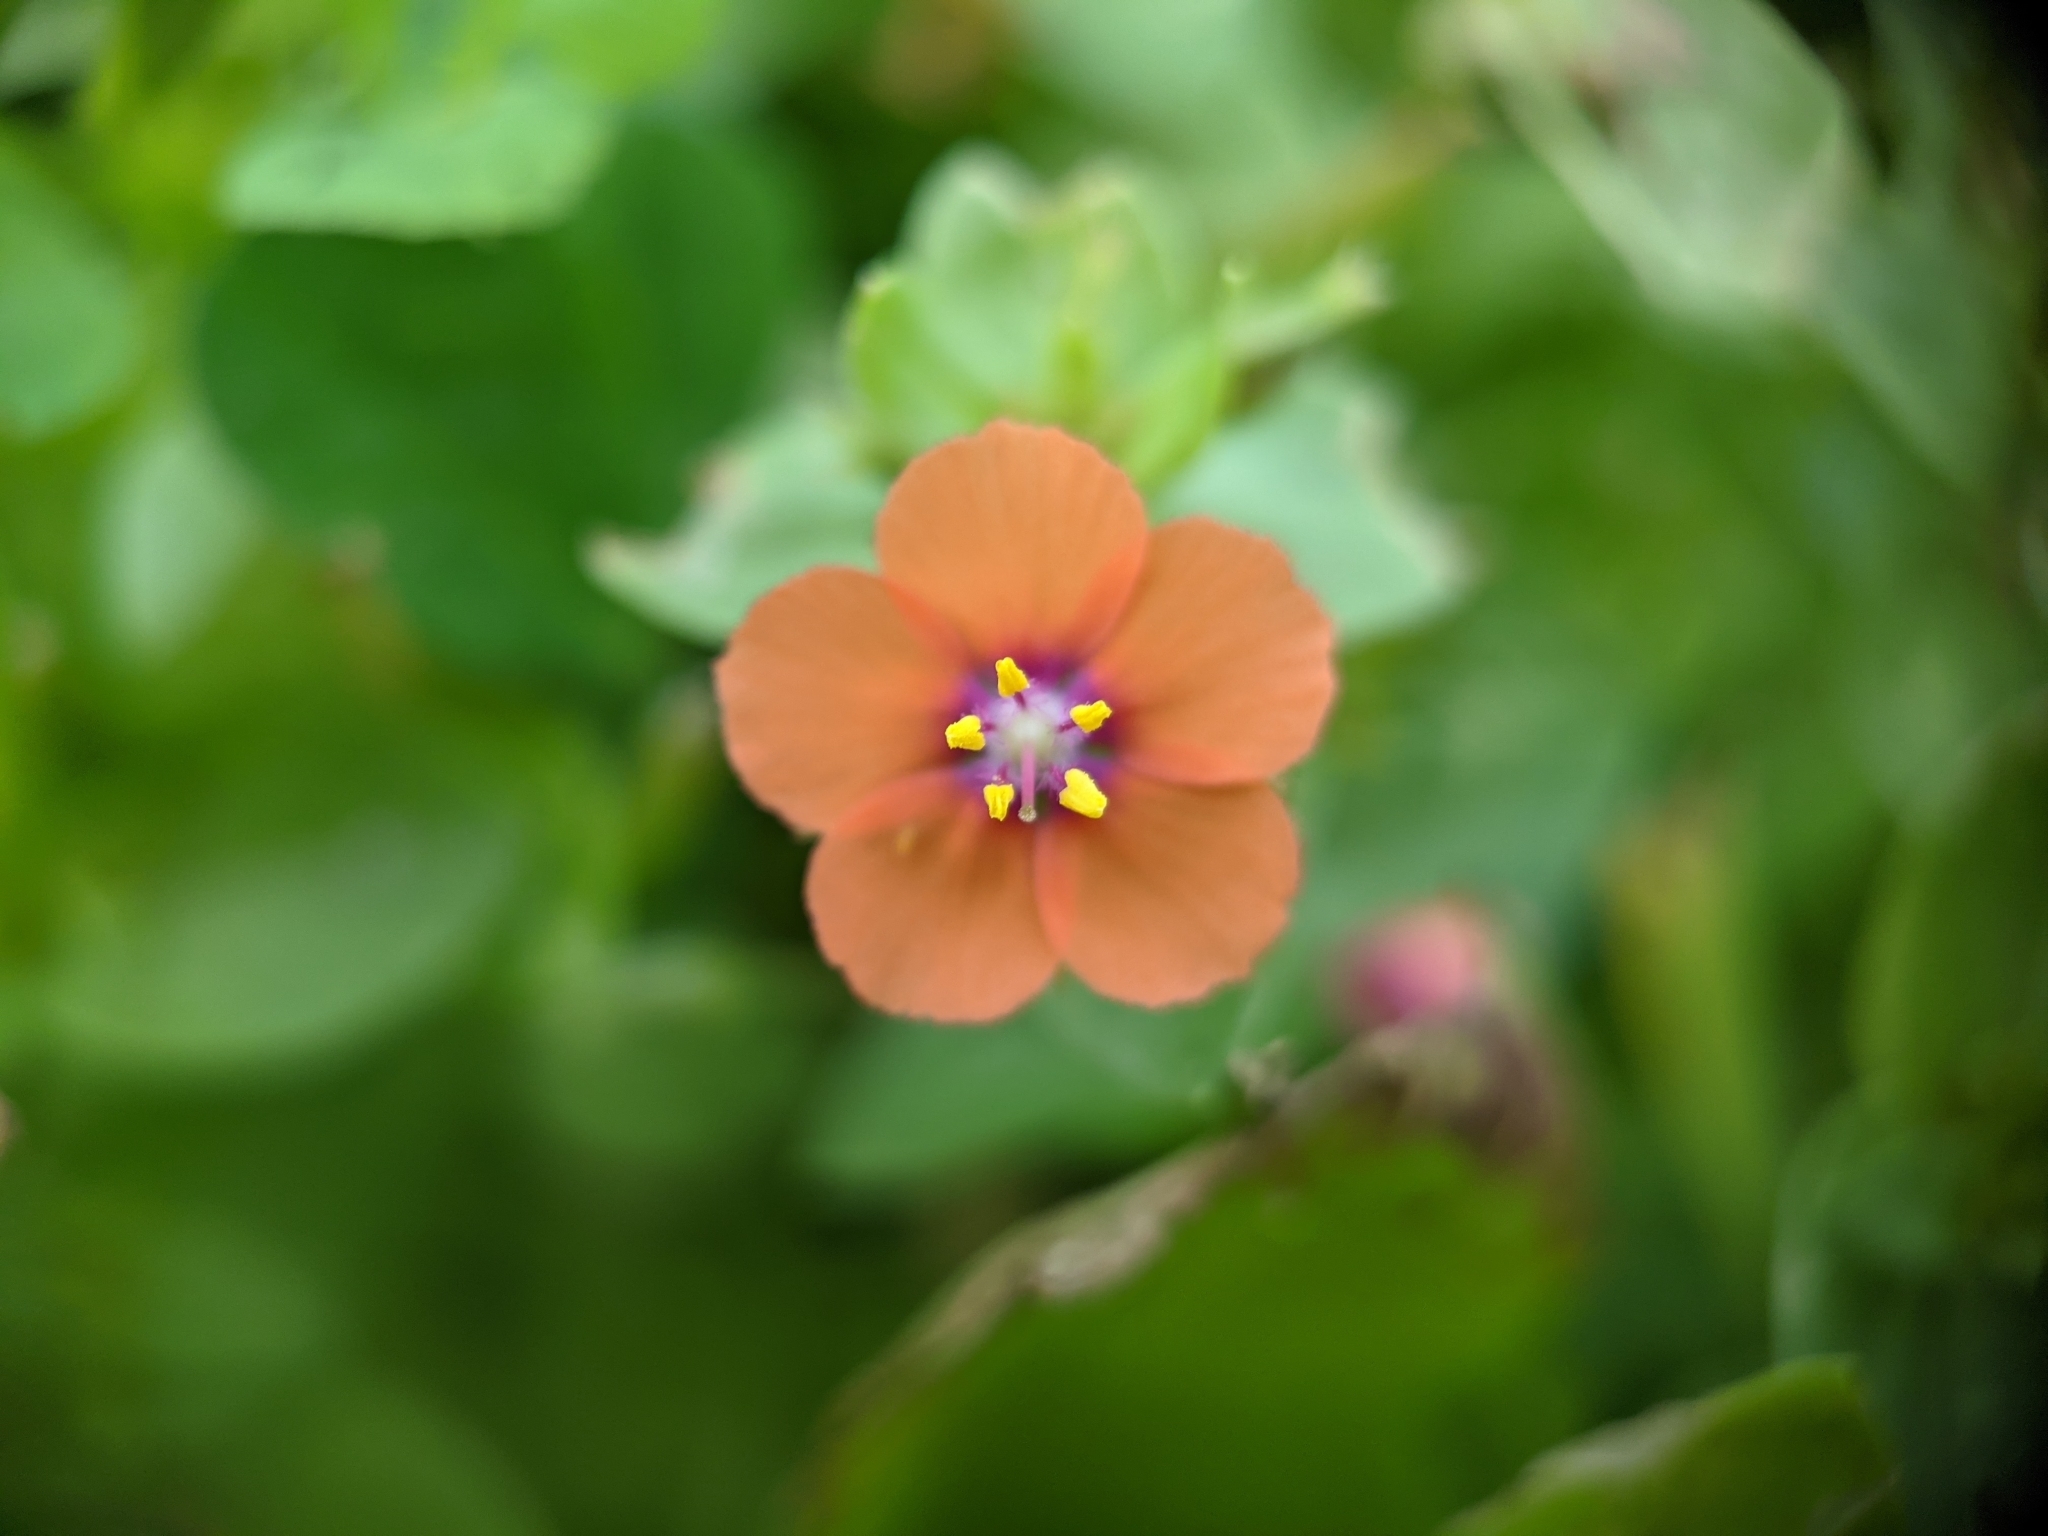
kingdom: Plantae
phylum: Tracheophyta
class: Magnoliopsida
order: Ericales
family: Primulaceae
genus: Lysimachia
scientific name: Lysimachia arvensis
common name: Scarlet pimpernel
